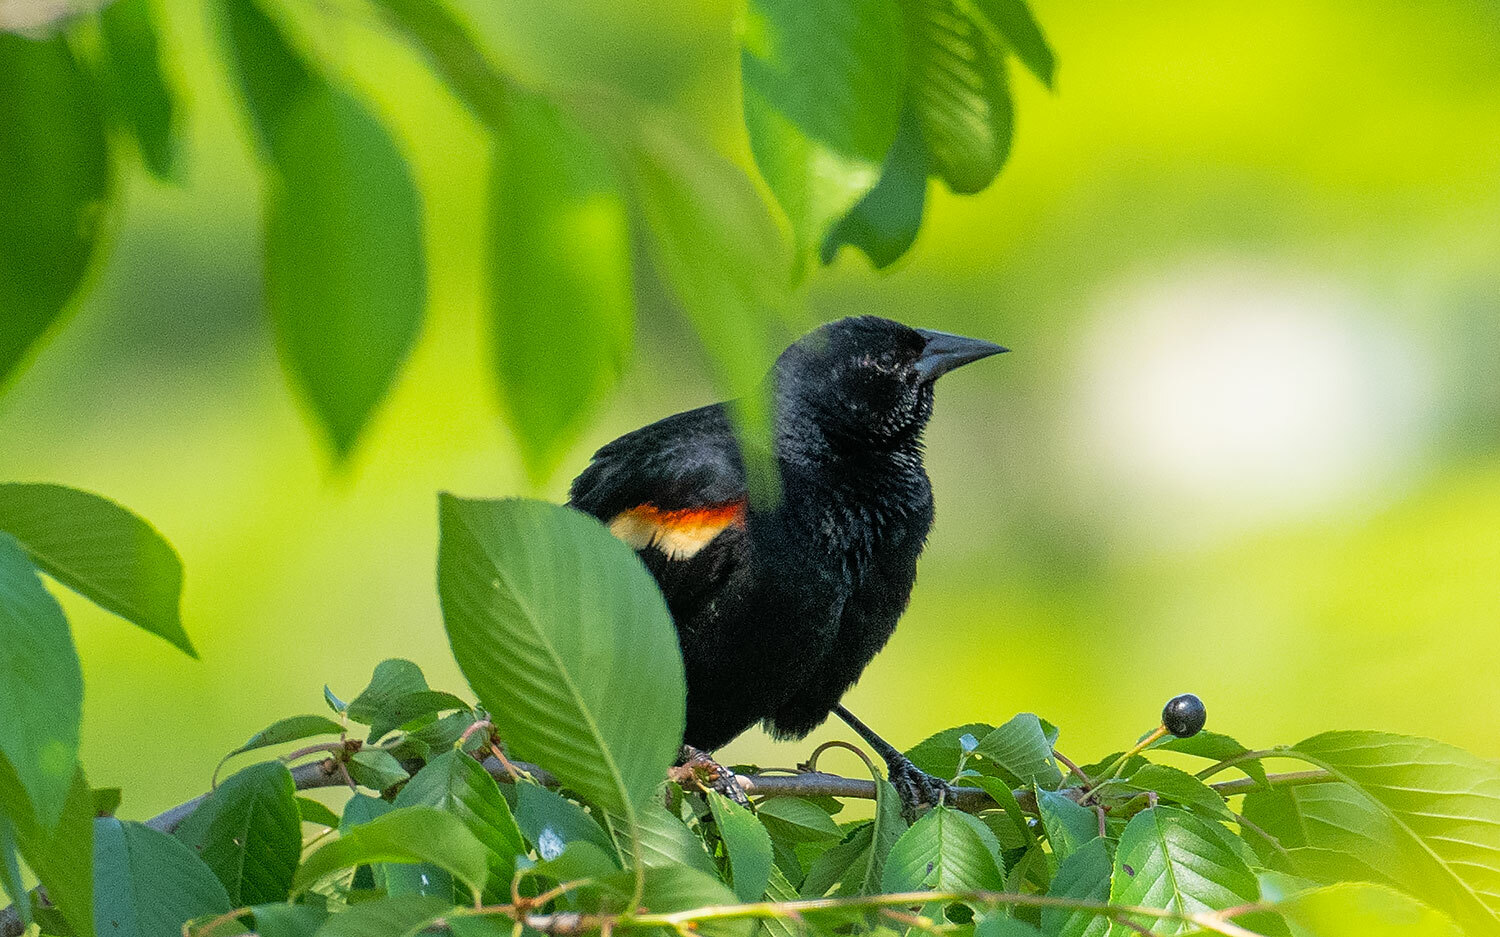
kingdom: Animalia
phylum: Chordata
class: Aves
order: Passeriformes
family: Icteridae
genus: Agelaius
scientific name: Agelaius phoeniceus
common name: Red-winged blackbird
